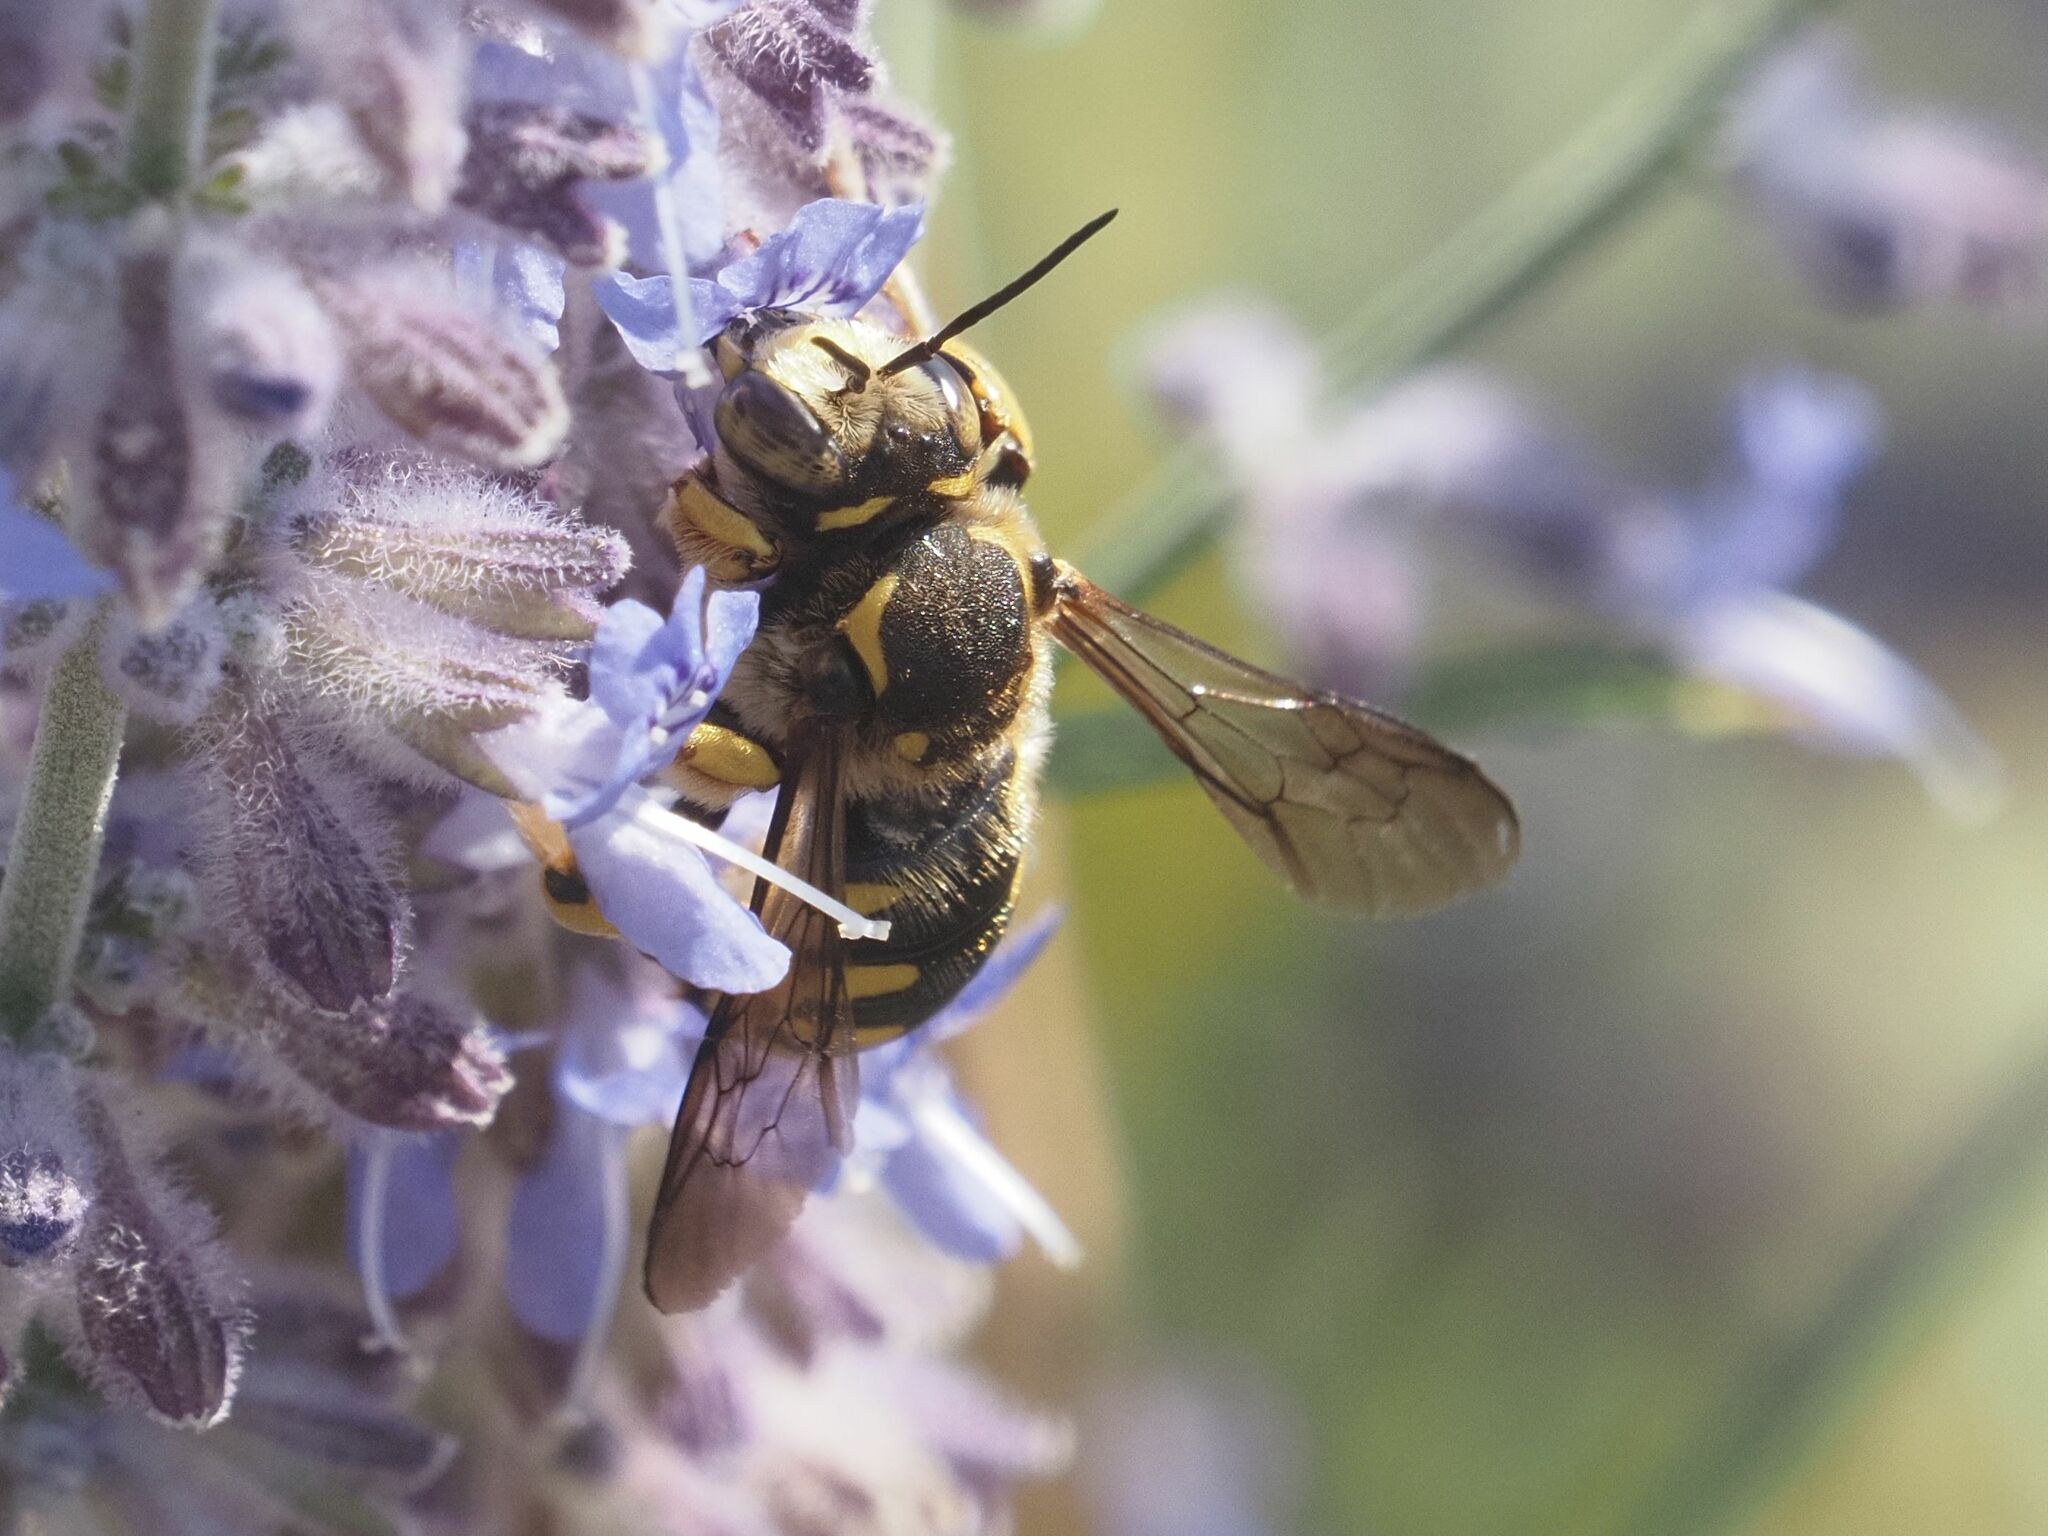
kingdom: Animalia
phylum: Arthropoda
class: Insecta
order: Hymenoptera
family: Megachilidae
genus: Anthidium
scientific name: Anthidium florentinum
